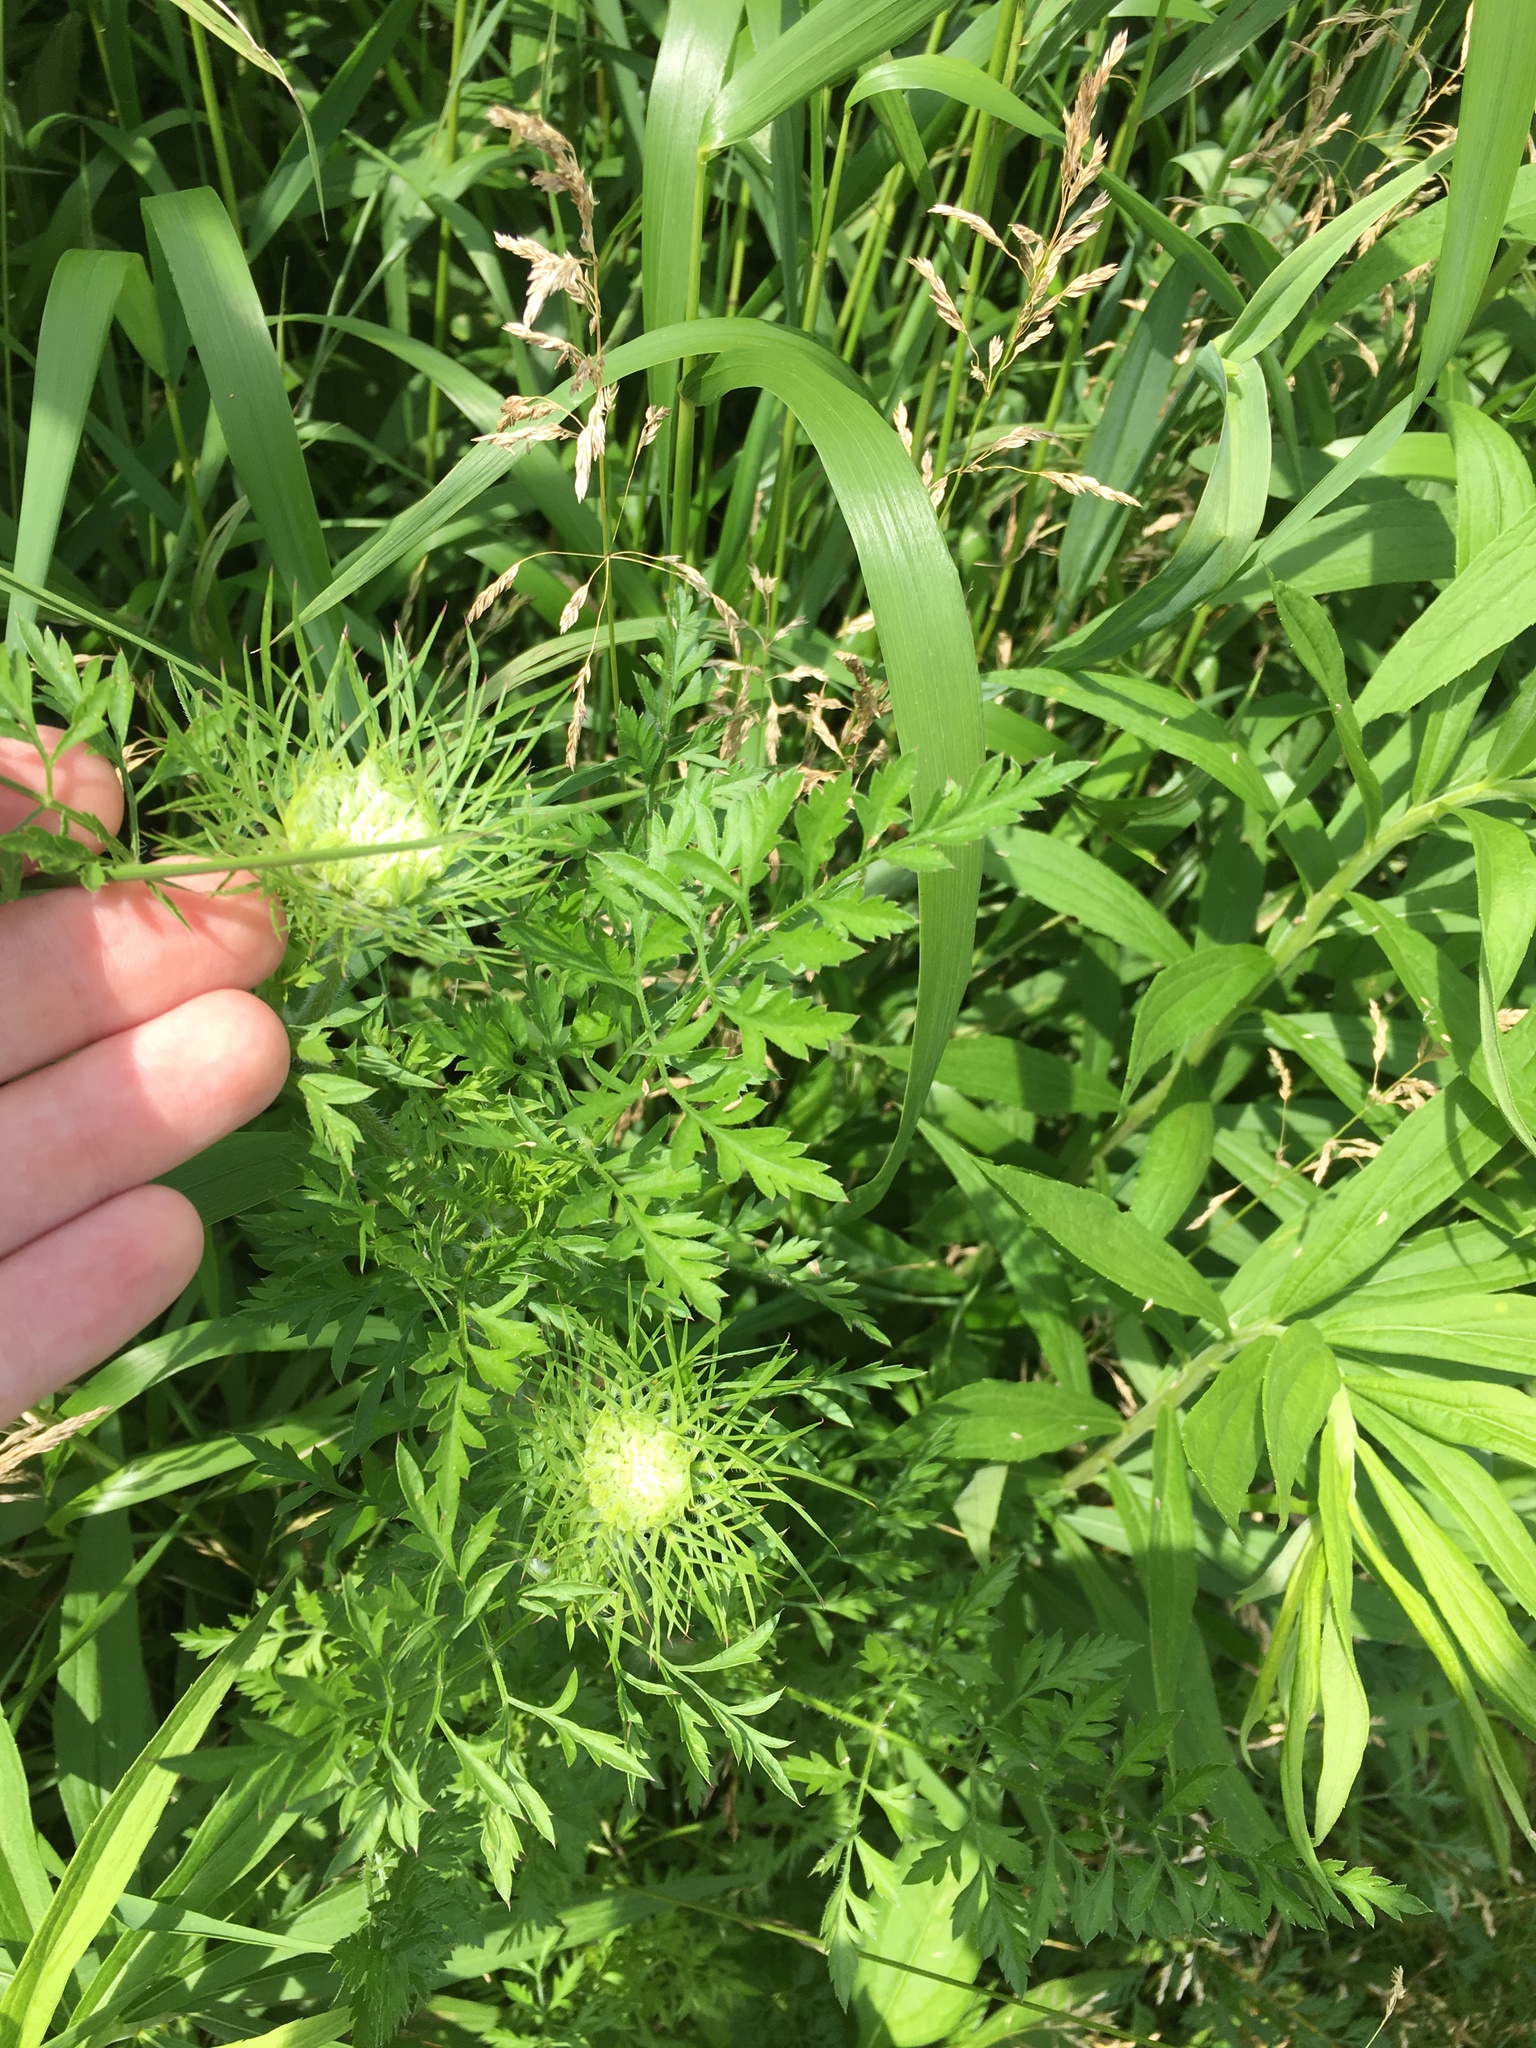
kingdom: Plantae
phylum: Tracheophyta
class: Magnoliopsida
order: Apiales
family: Apiaceae
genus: Daucus
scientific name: Daucus carota
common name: Wild carrot
